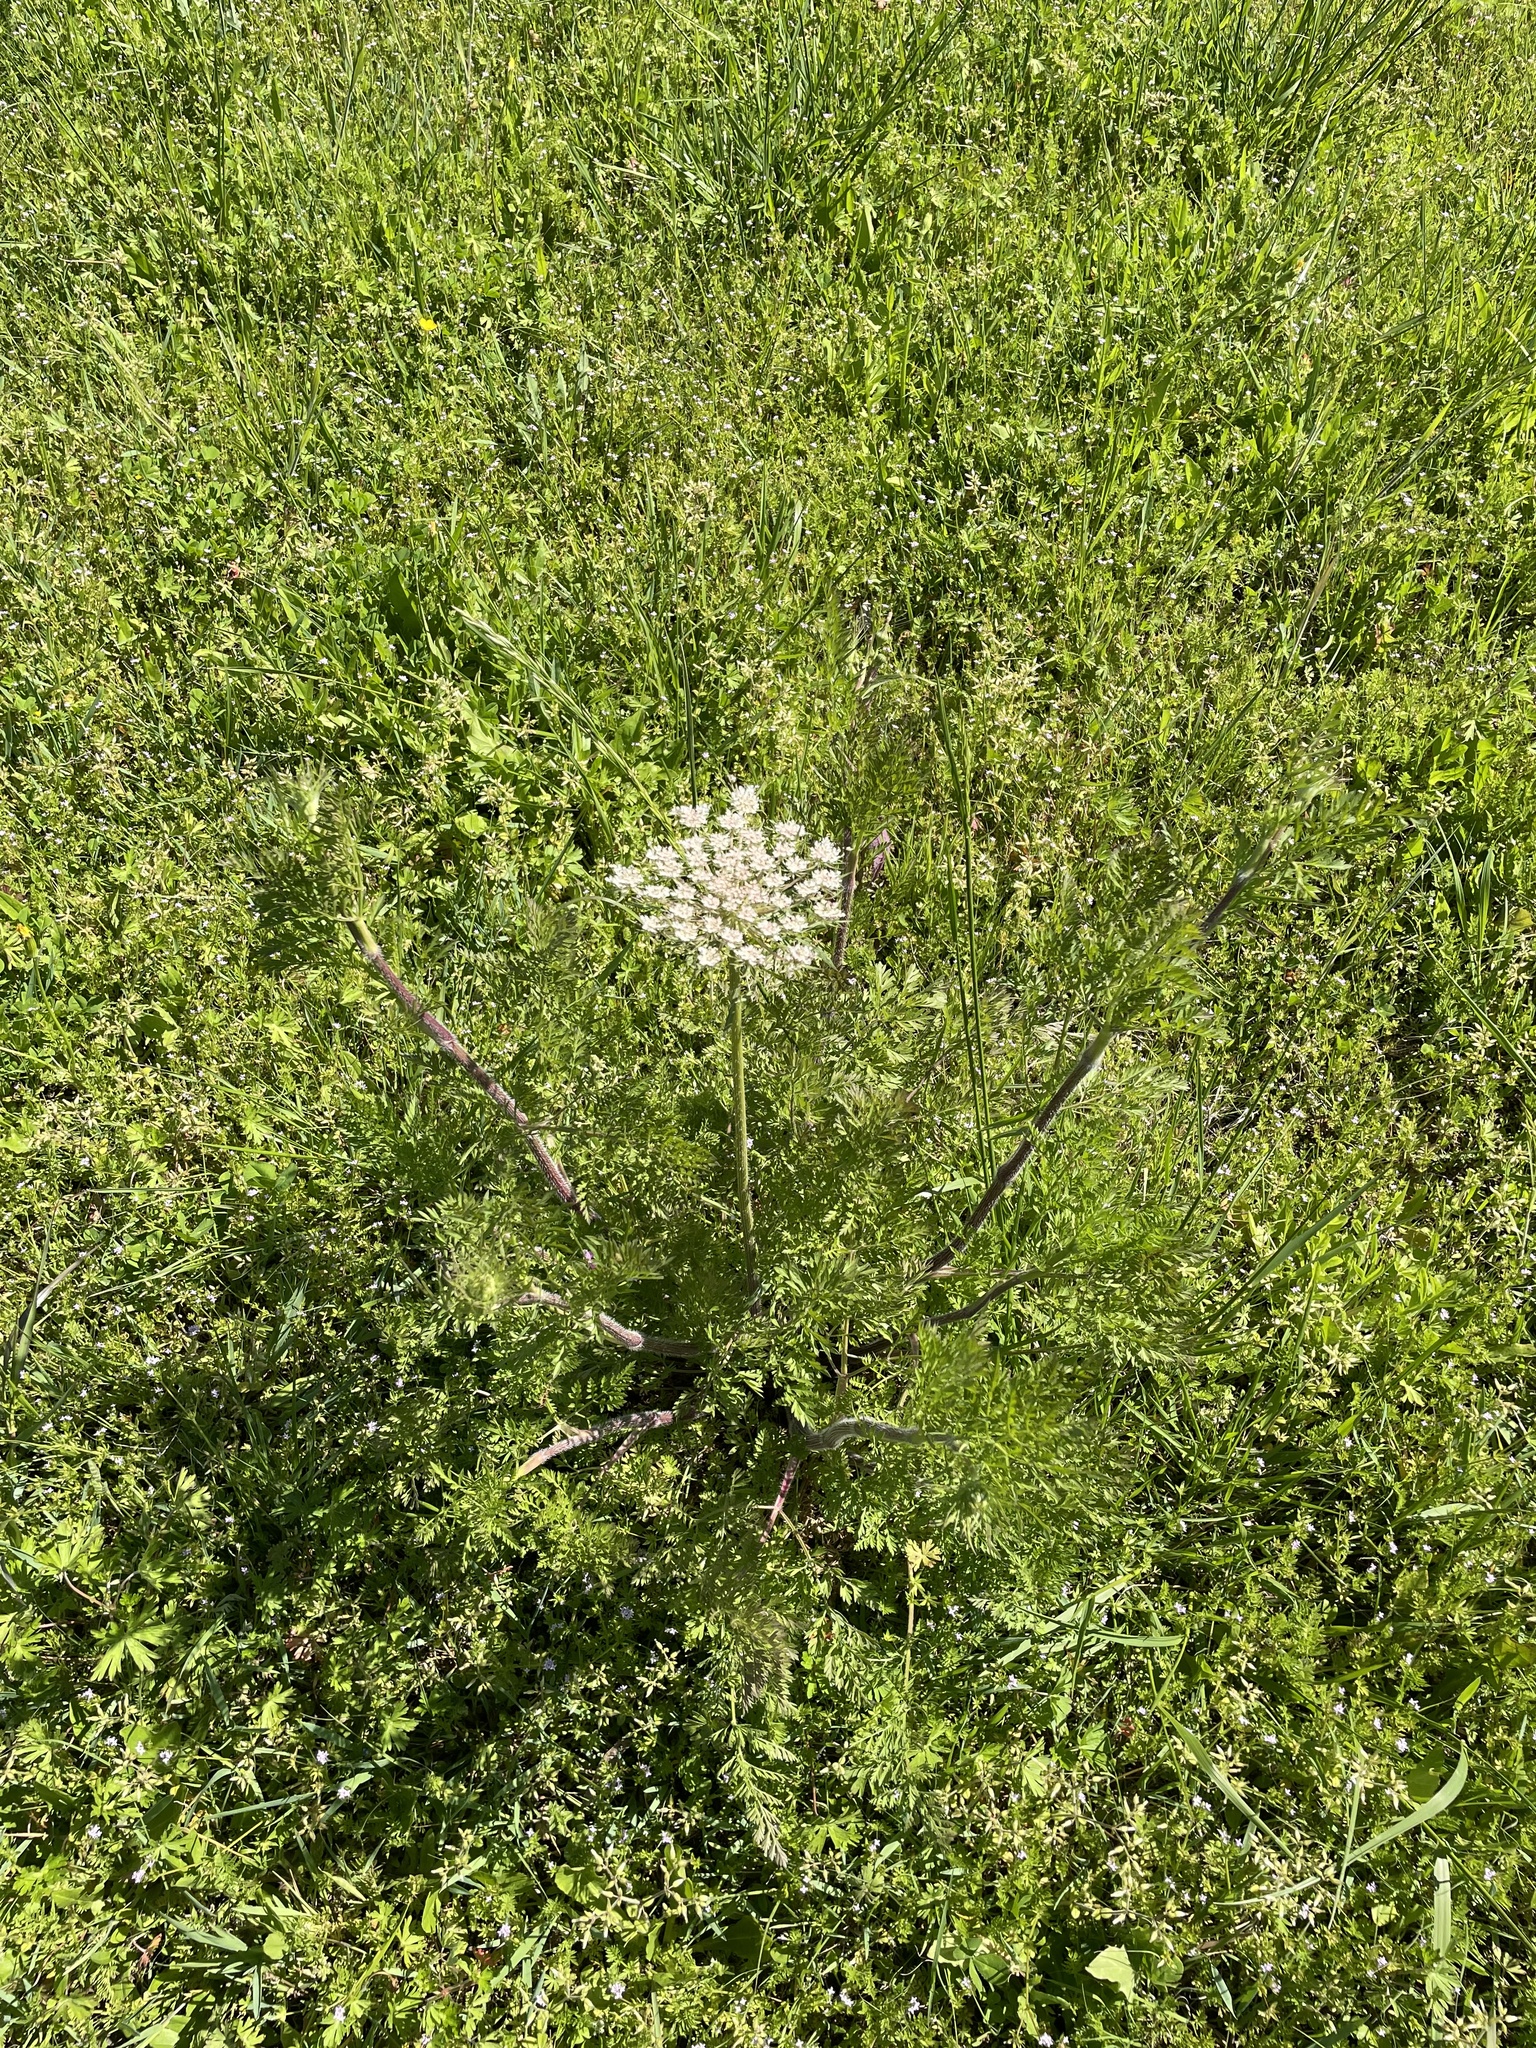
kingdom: Plantae
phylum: Tracheophyta
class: Magnoliopsida
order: Apiales
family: Apiaceae
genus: Daucus
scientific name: Daucus carota
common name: Wild carrot
